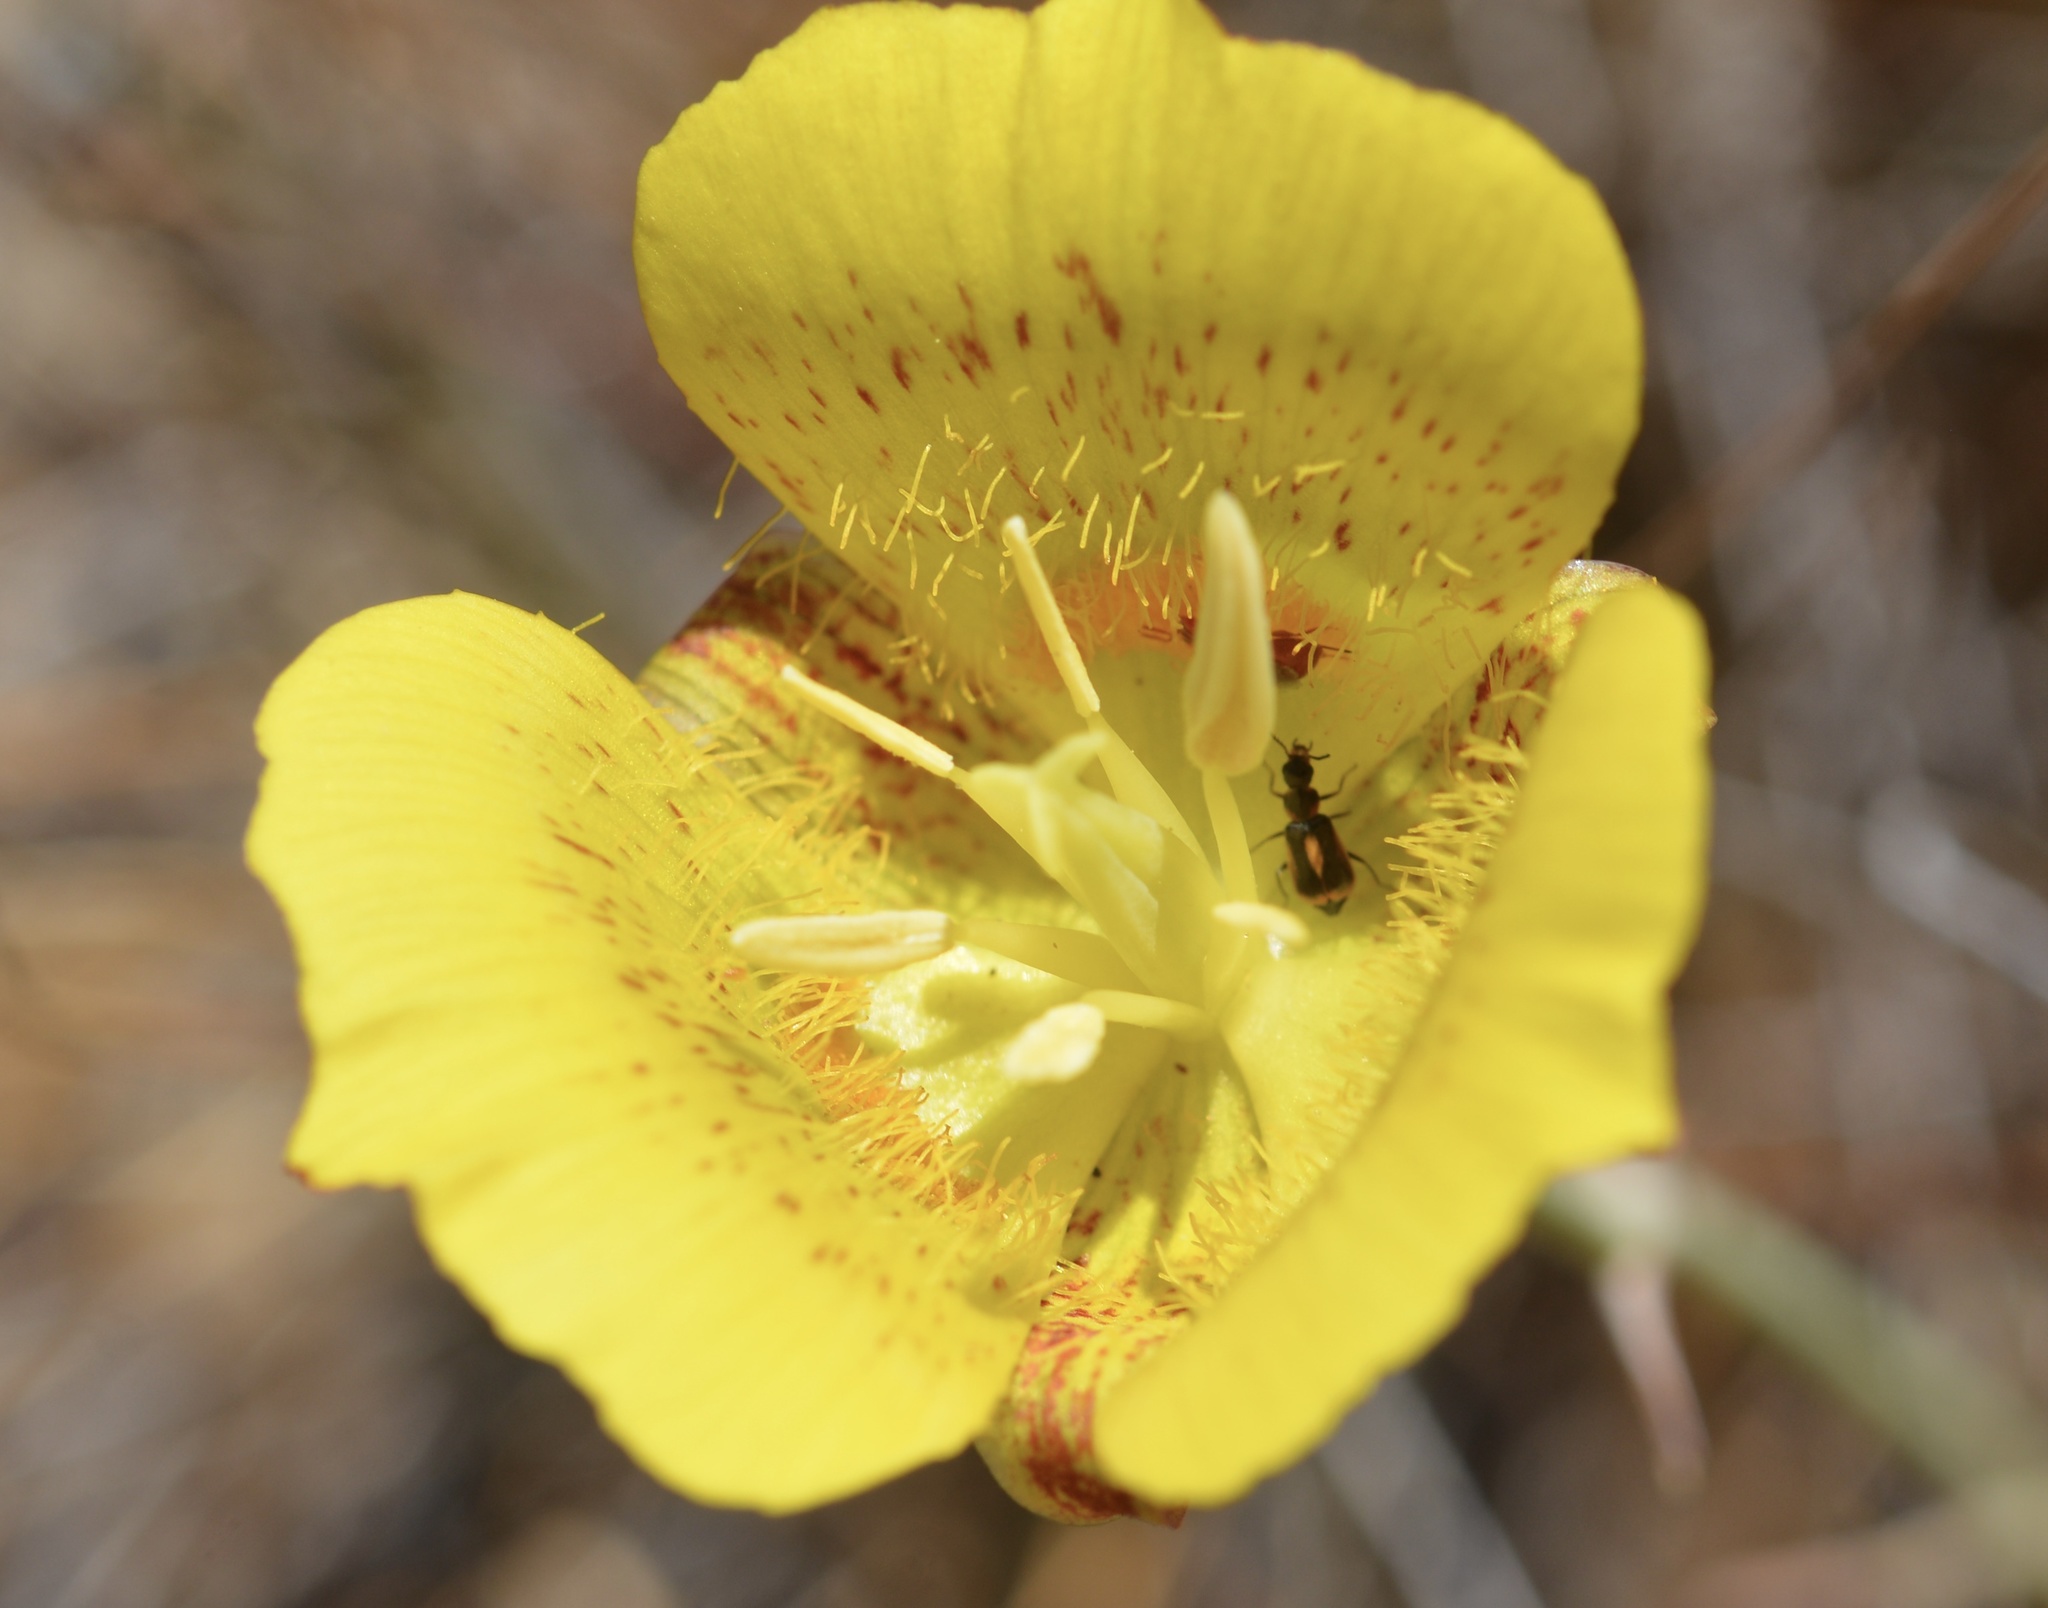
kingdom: Plantae
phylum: Tracheophyta
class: Liliopsida
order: Liliales
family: Liliaceae
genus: Calochortus
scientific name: Calochortus luteus
